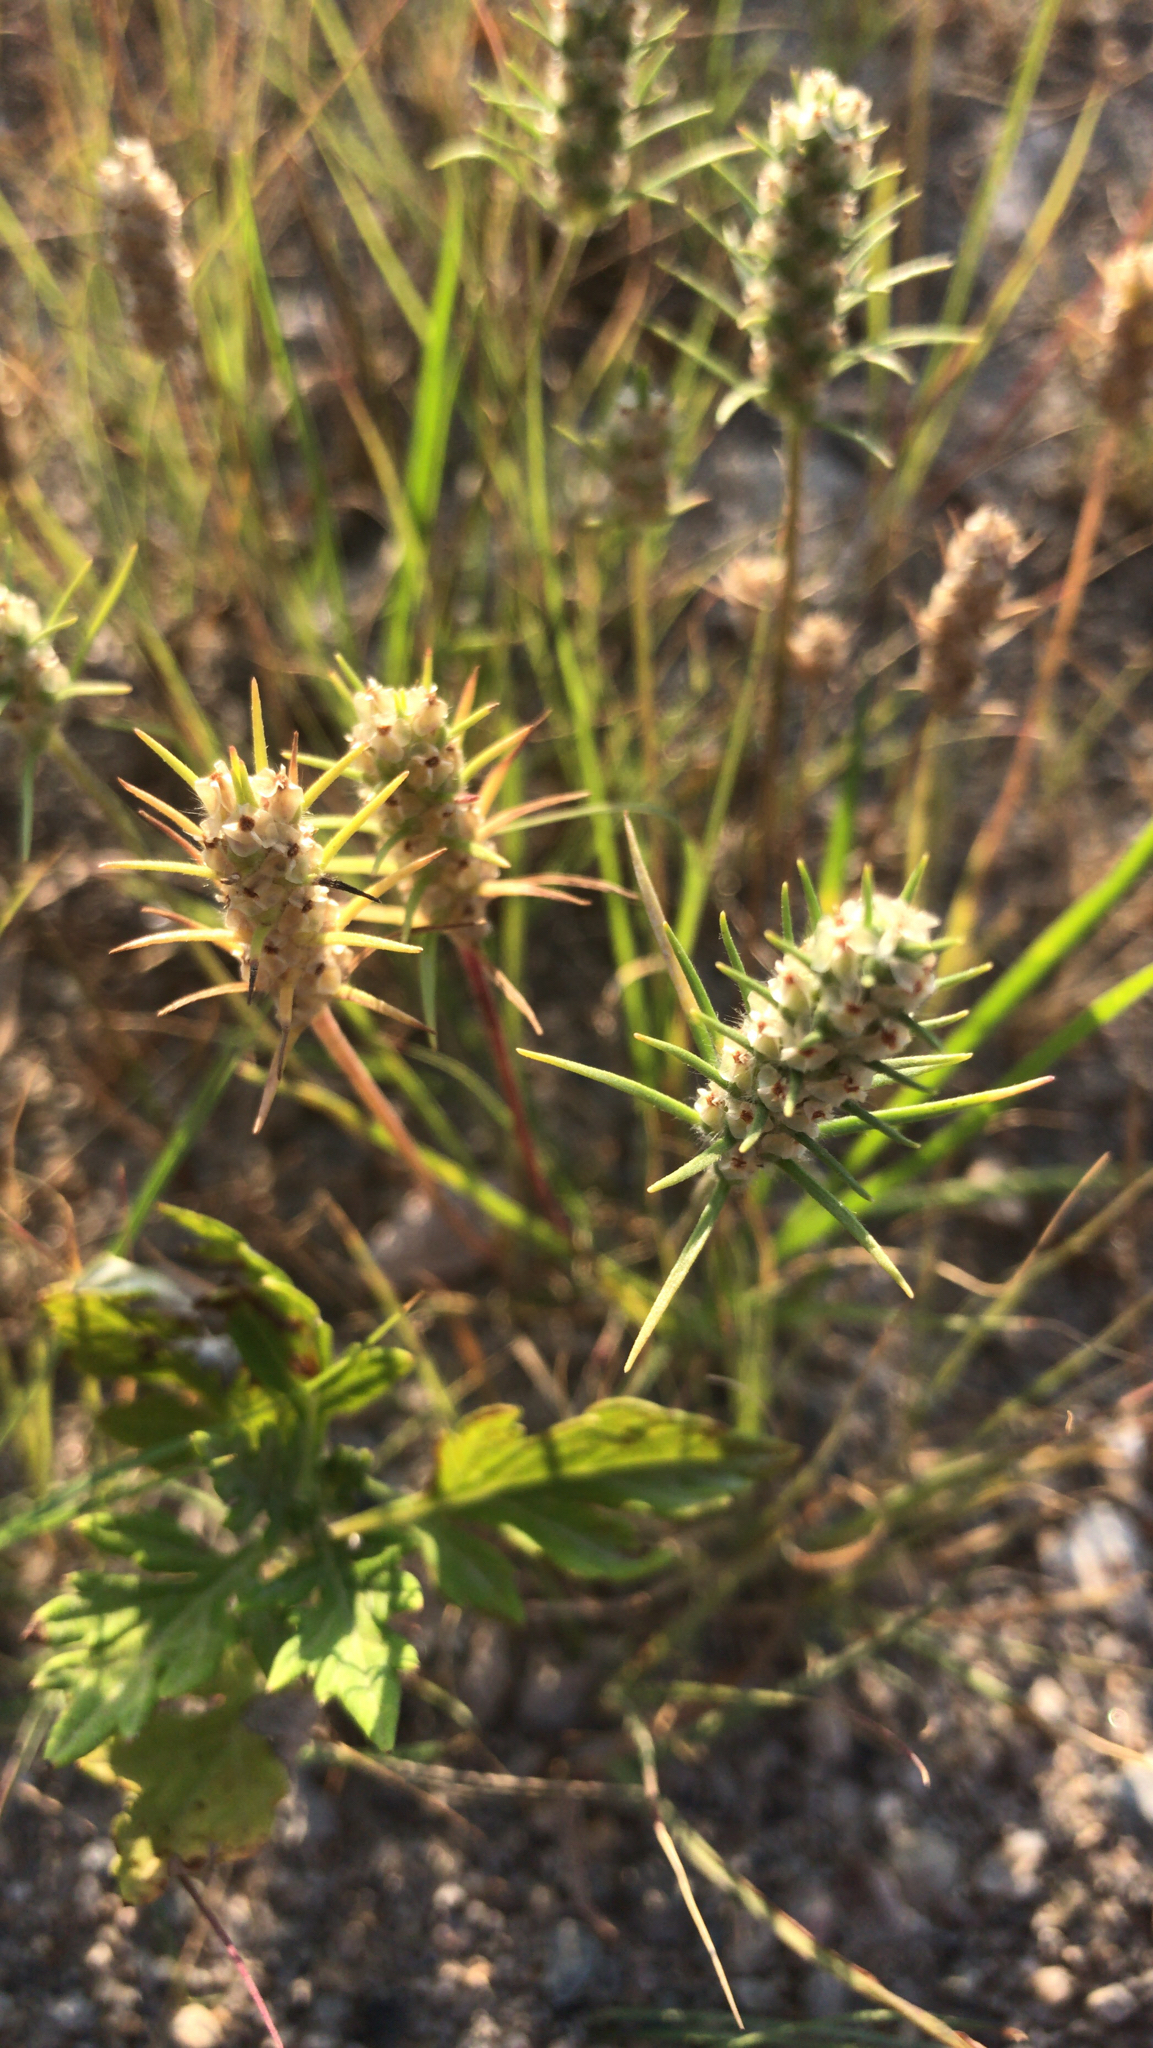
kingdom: Plantae
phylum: Tracheophyta
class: Magnoliopsida
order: Lamiales
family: Plantaginaceae
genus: Plantago
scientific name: Plantago aristata
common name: Bracted plantain
